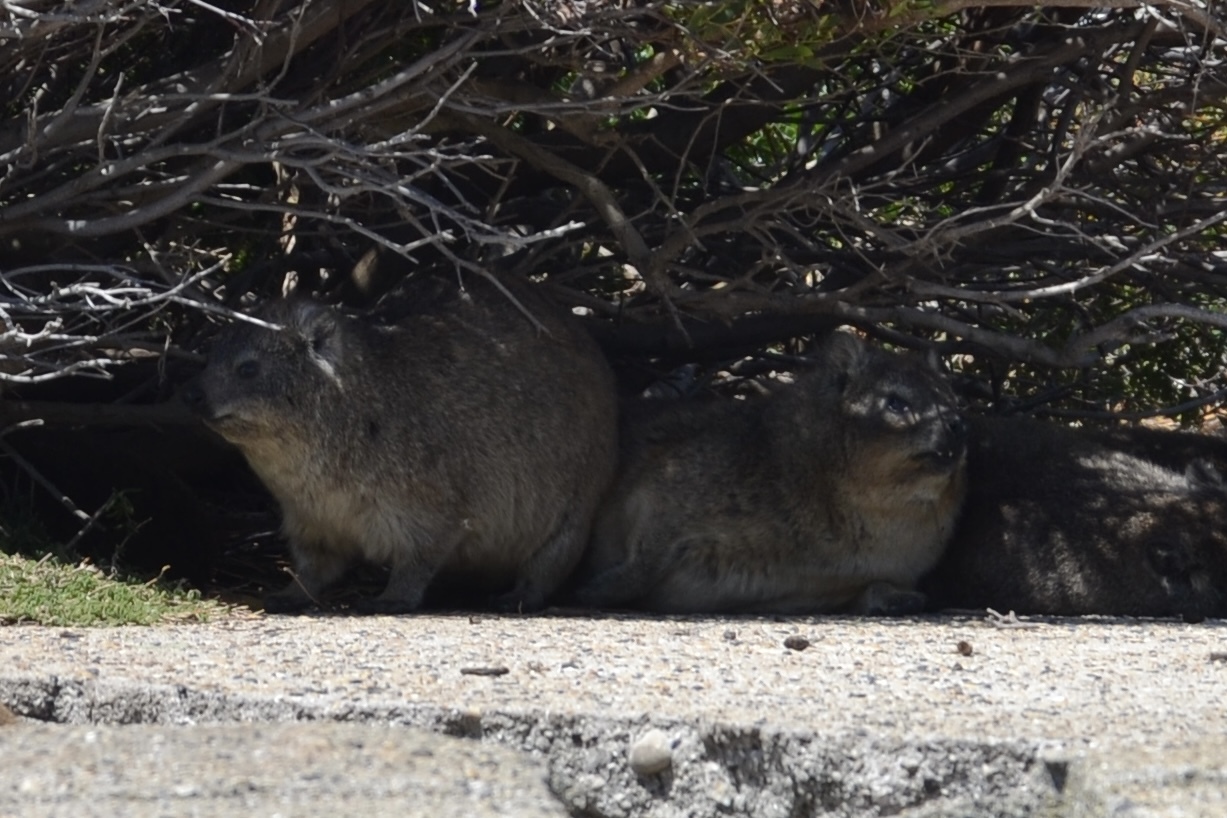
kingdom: Animalia
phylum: Chordata
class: Mammalia
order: Hyracoidea
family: Procaviidae
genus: Procavia
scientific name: Procavia capensis
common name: Rock hyrax
